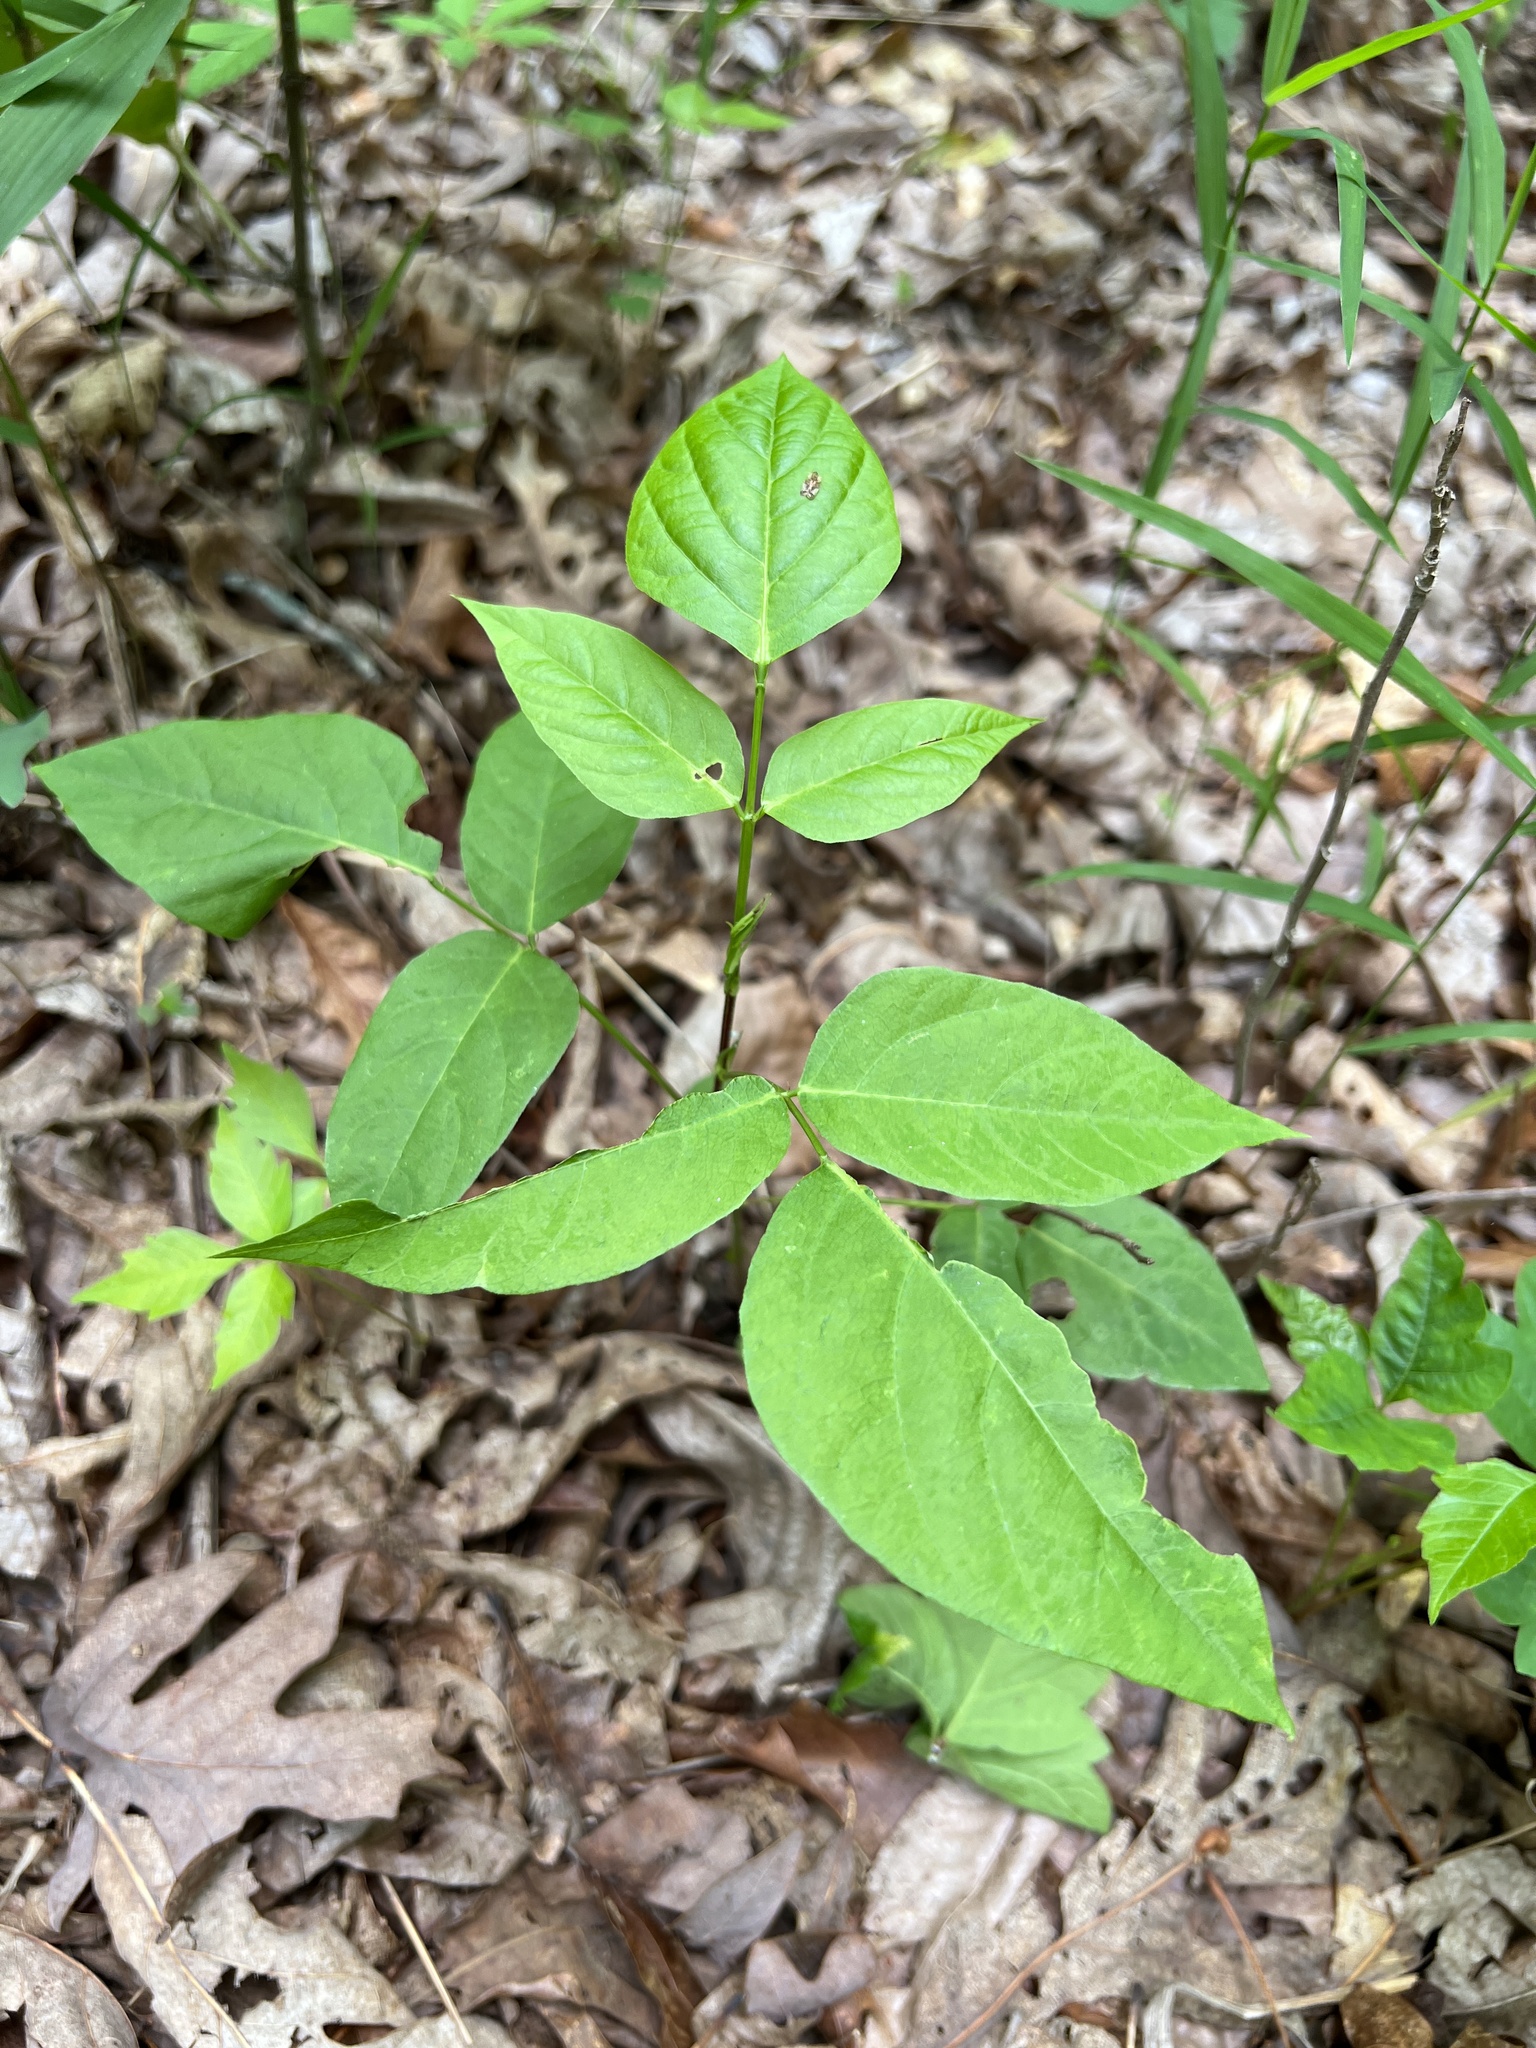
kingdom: Plantae
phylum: Tracheophyta
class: Magnoliopsida
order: Fabales
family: Fabaceae
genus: Desmodium
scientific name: Desmodium cuspidatum
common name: Big tick trefoil
